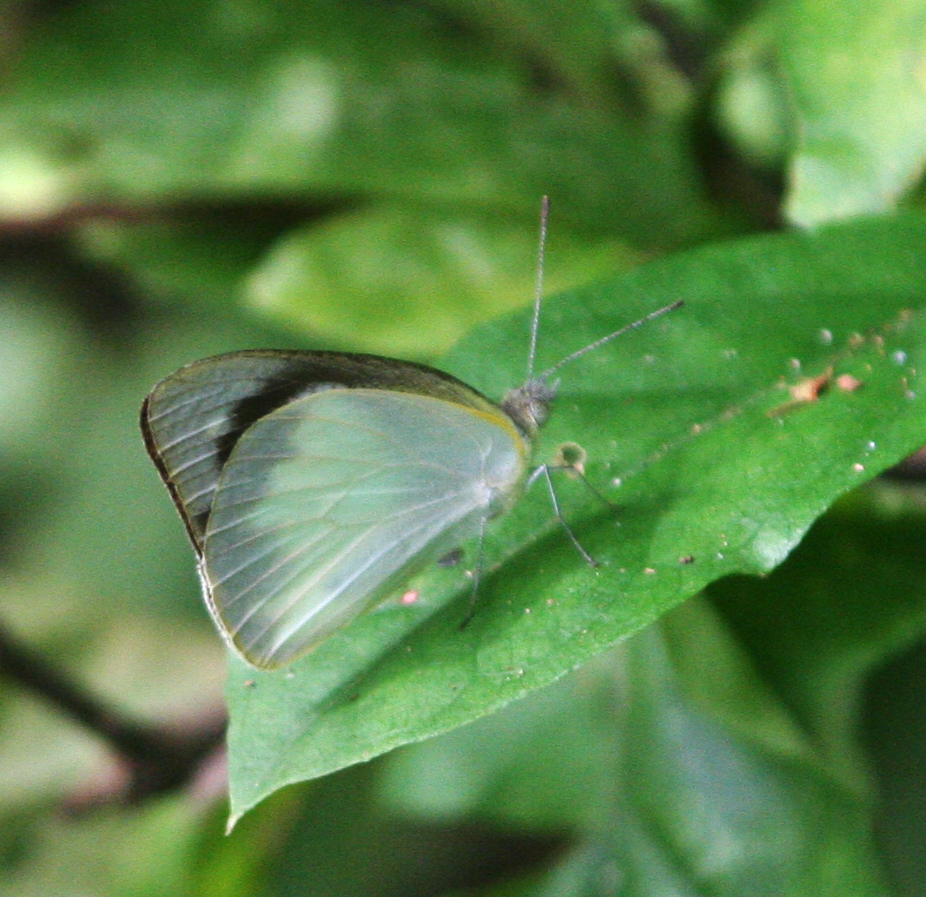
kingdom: Animalia
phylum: Arthropoda
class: Insecta
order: Lepidoptera
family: Pieridae
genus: Appias
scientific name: Appias albina
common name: Common albatross
